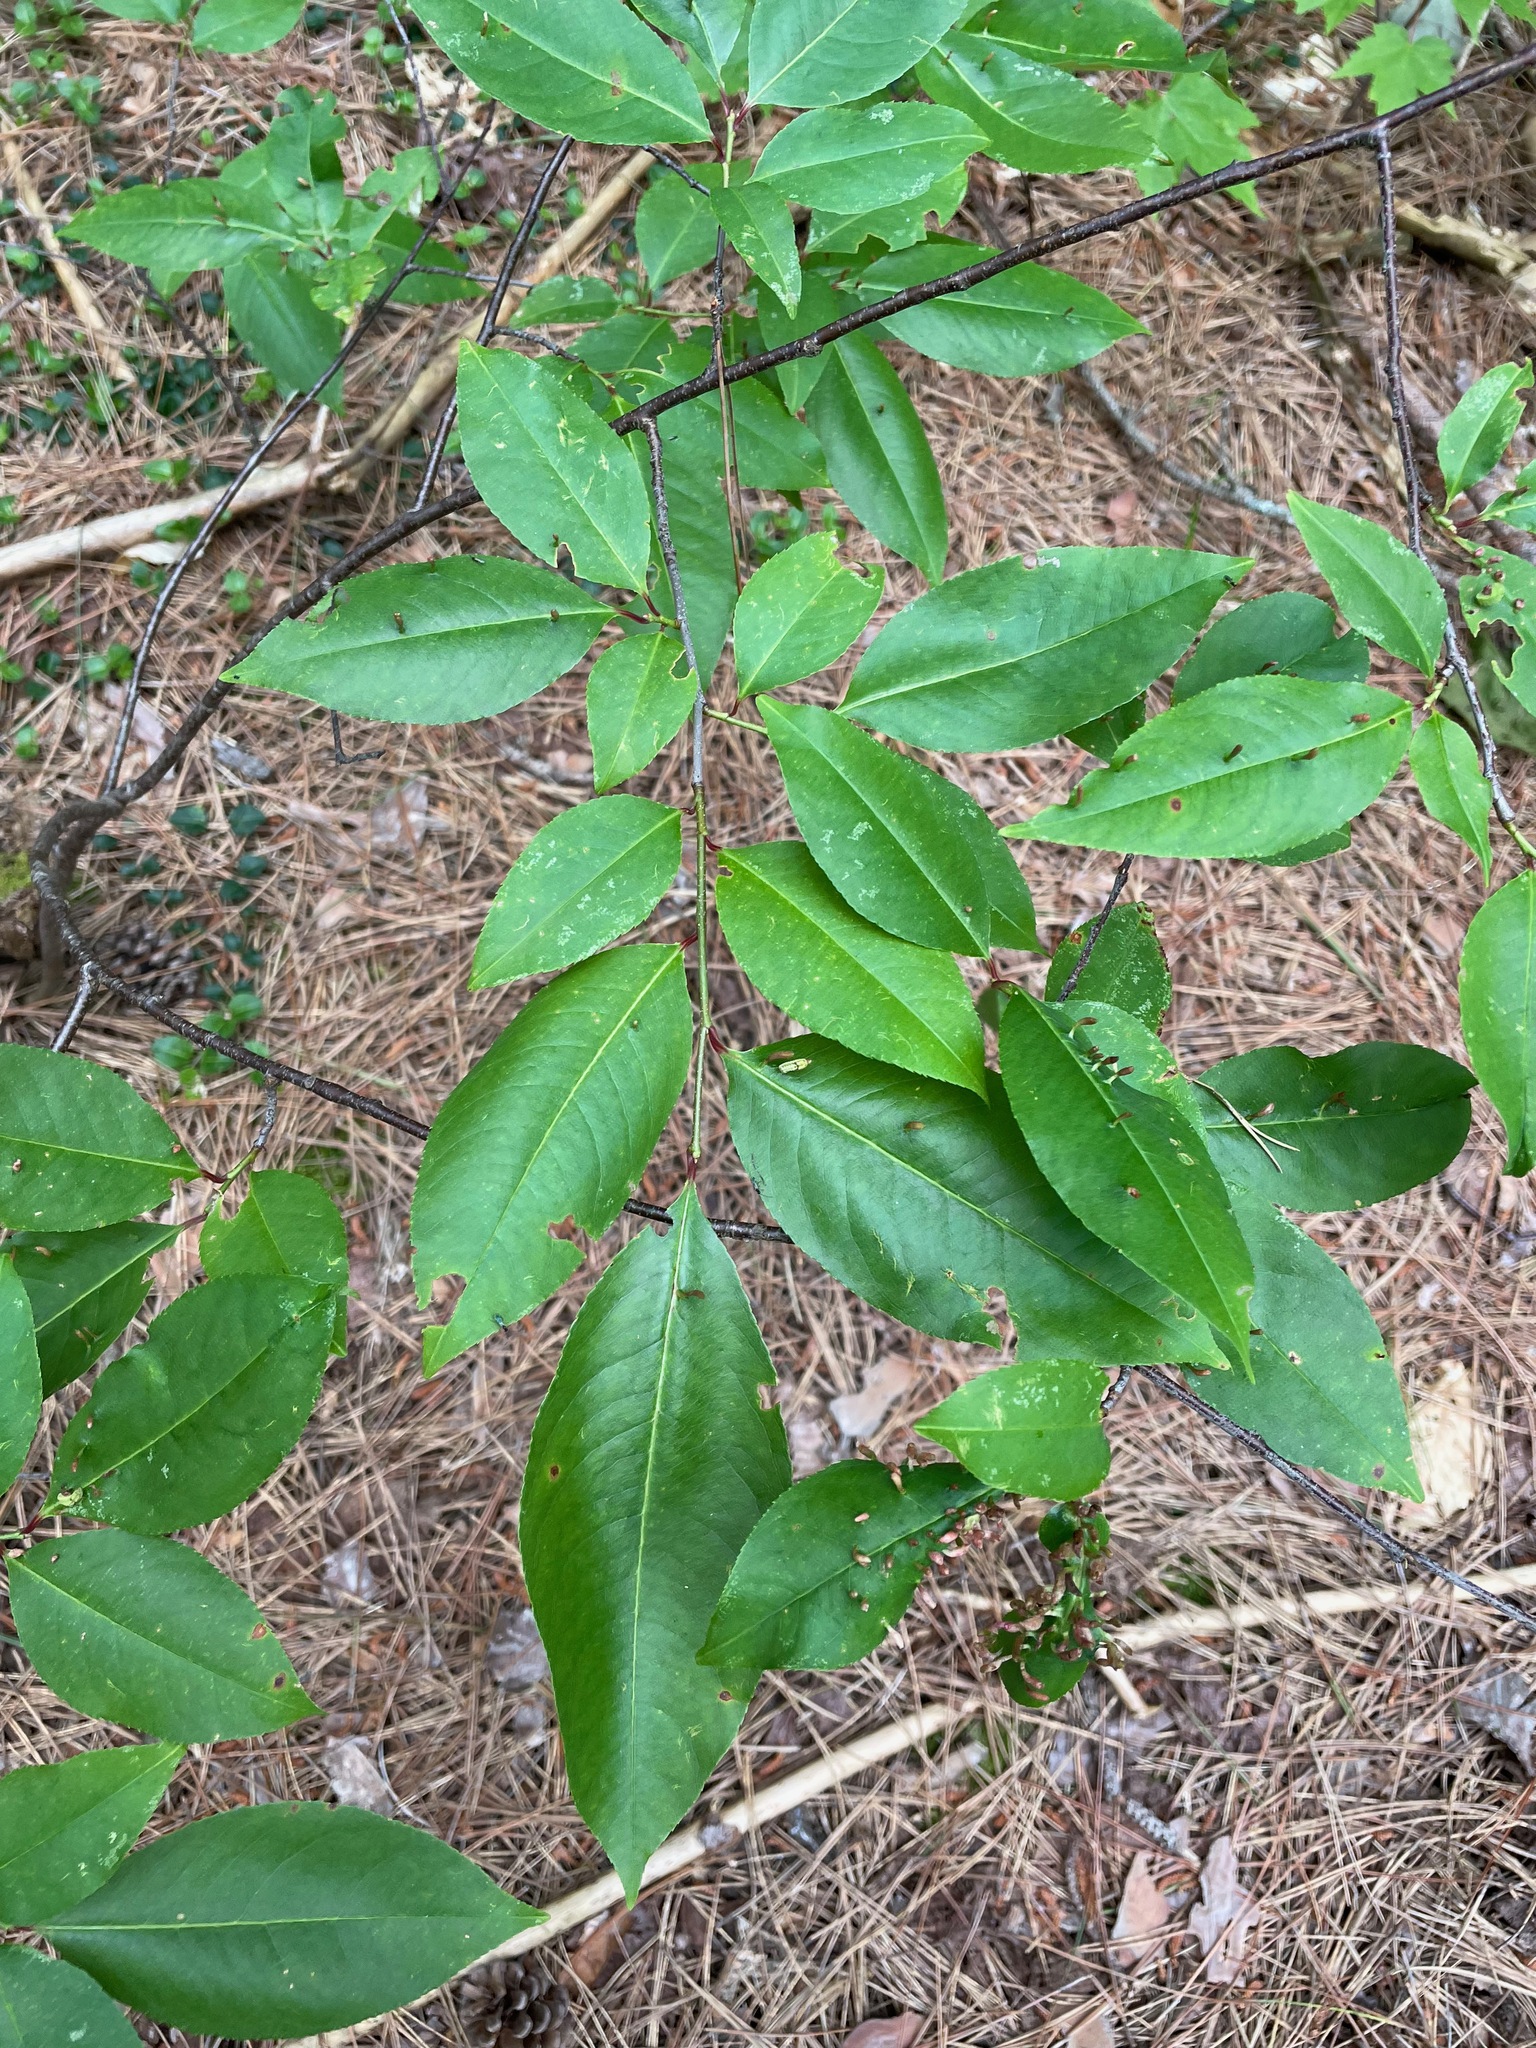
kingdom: Plantae
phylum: Tracheophyta
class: Magnoliopsida
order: Rosales
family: Rosaceae
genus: Prunus
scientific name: Prunus serotina
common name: Black cherry
